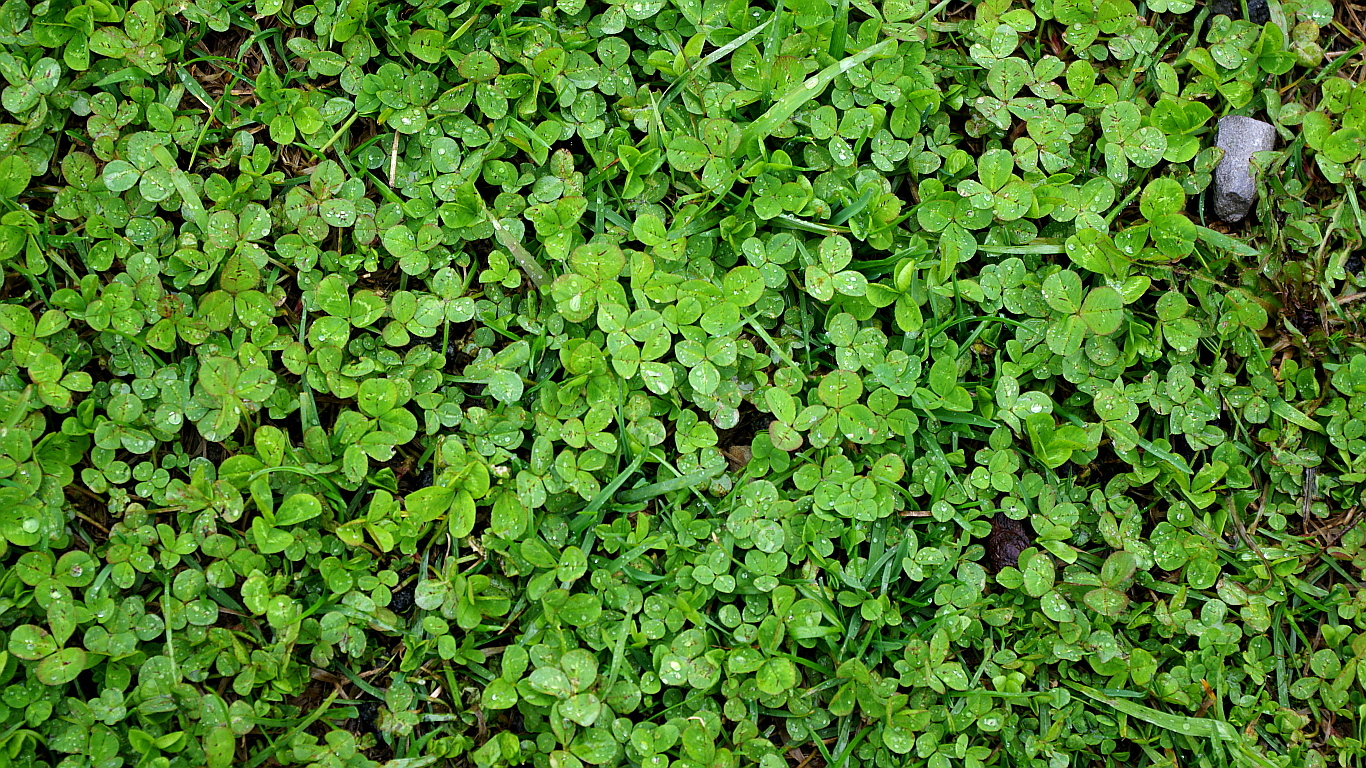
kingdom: Plantae
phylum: Tracheophyta
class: Magnoliopsida
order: Fabales
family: Fabaceae
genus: Trifolium
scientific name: Trifolium repens
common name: White clover
